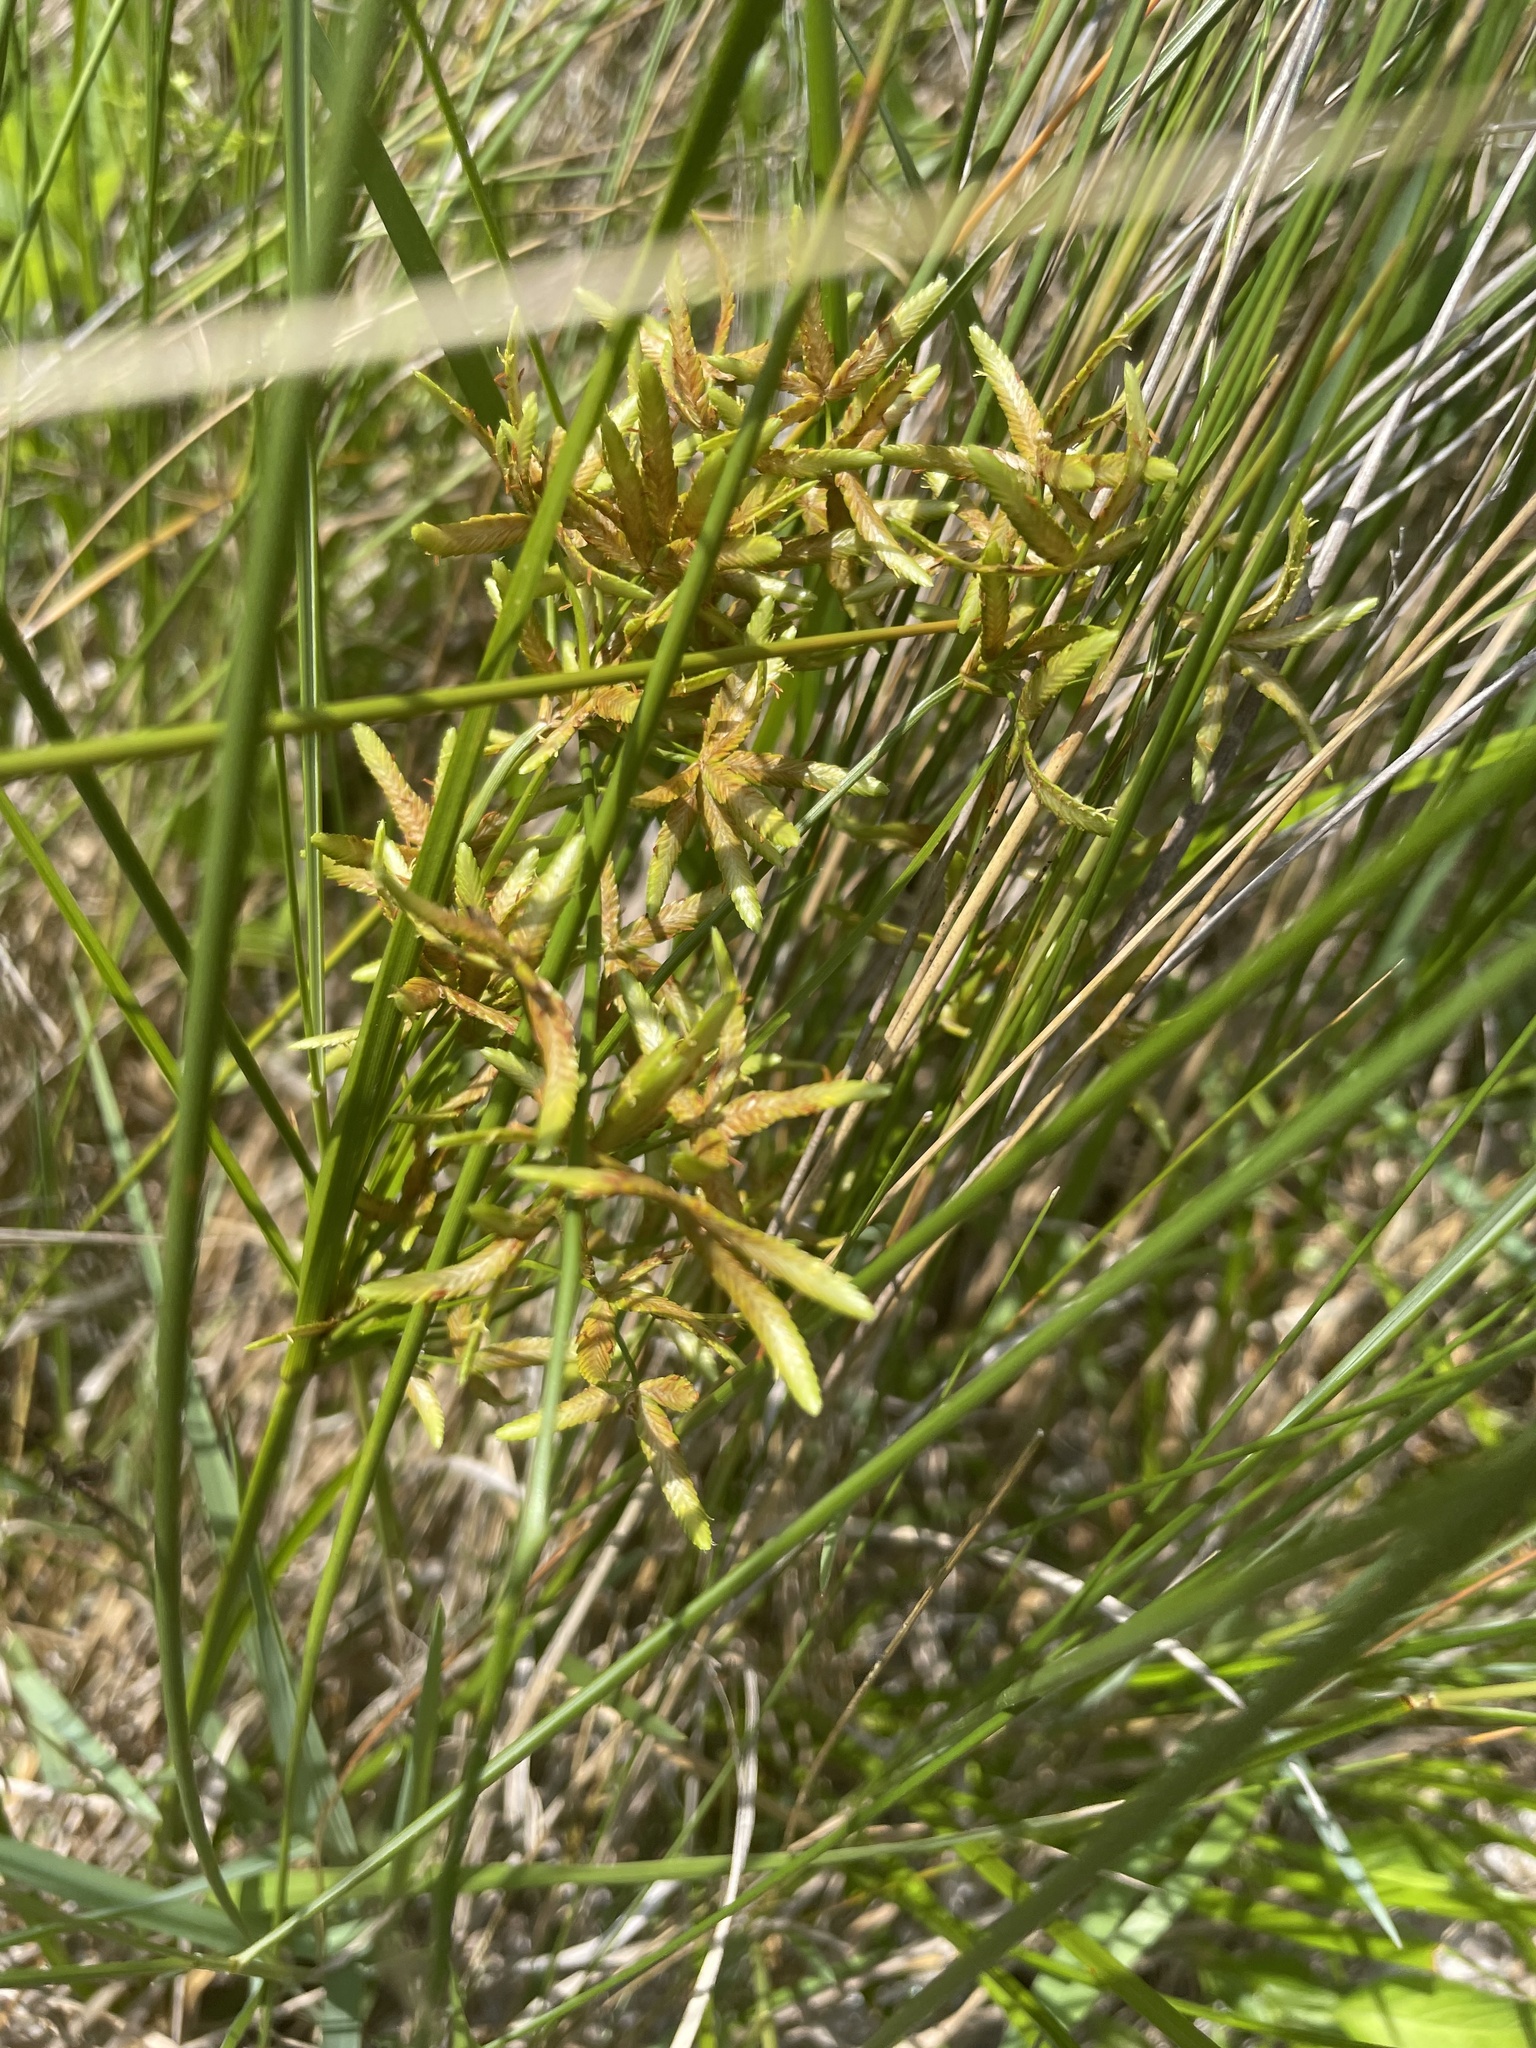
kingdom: Plantae
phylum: Tracheophyta
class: Liliopsida
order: Poales
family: Cyperaceae
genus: Cyperus
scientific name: Cyperus lecontei
